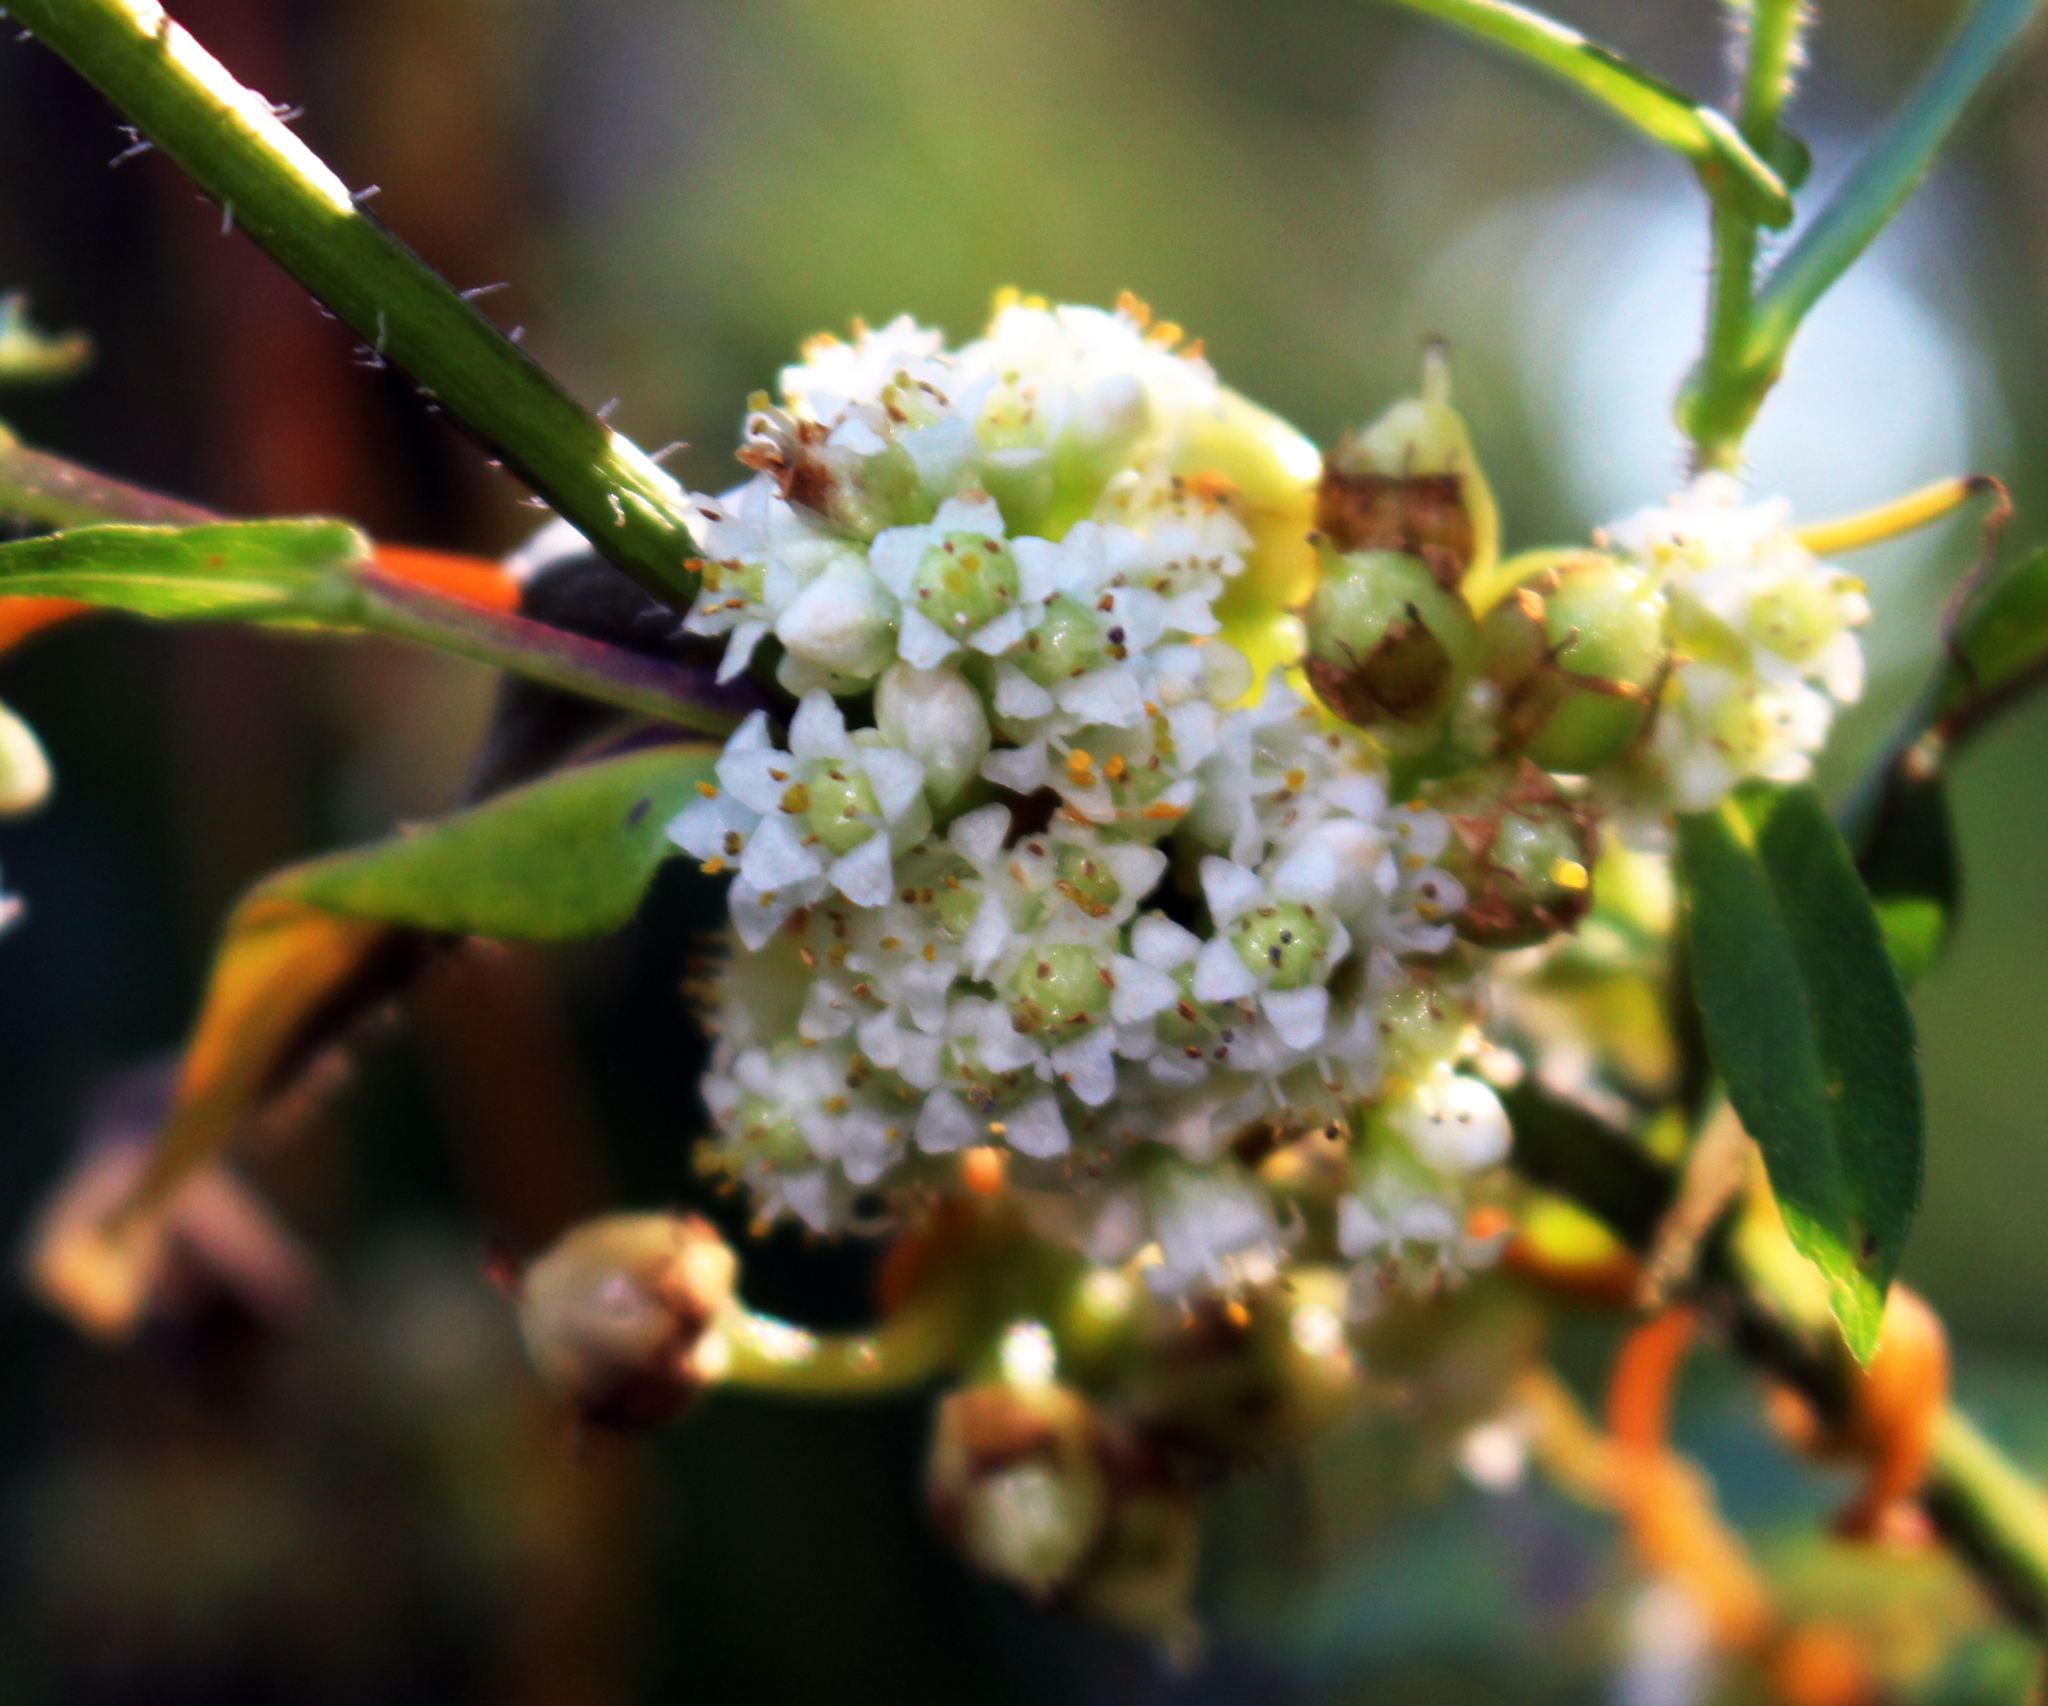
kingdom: Plantae
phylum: Tracheophyta
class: Magnoliopsida
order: Solanales
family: Convolvulaceae
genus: Cuscuta
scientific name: Cuscuta gronovii
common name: Common dodder
